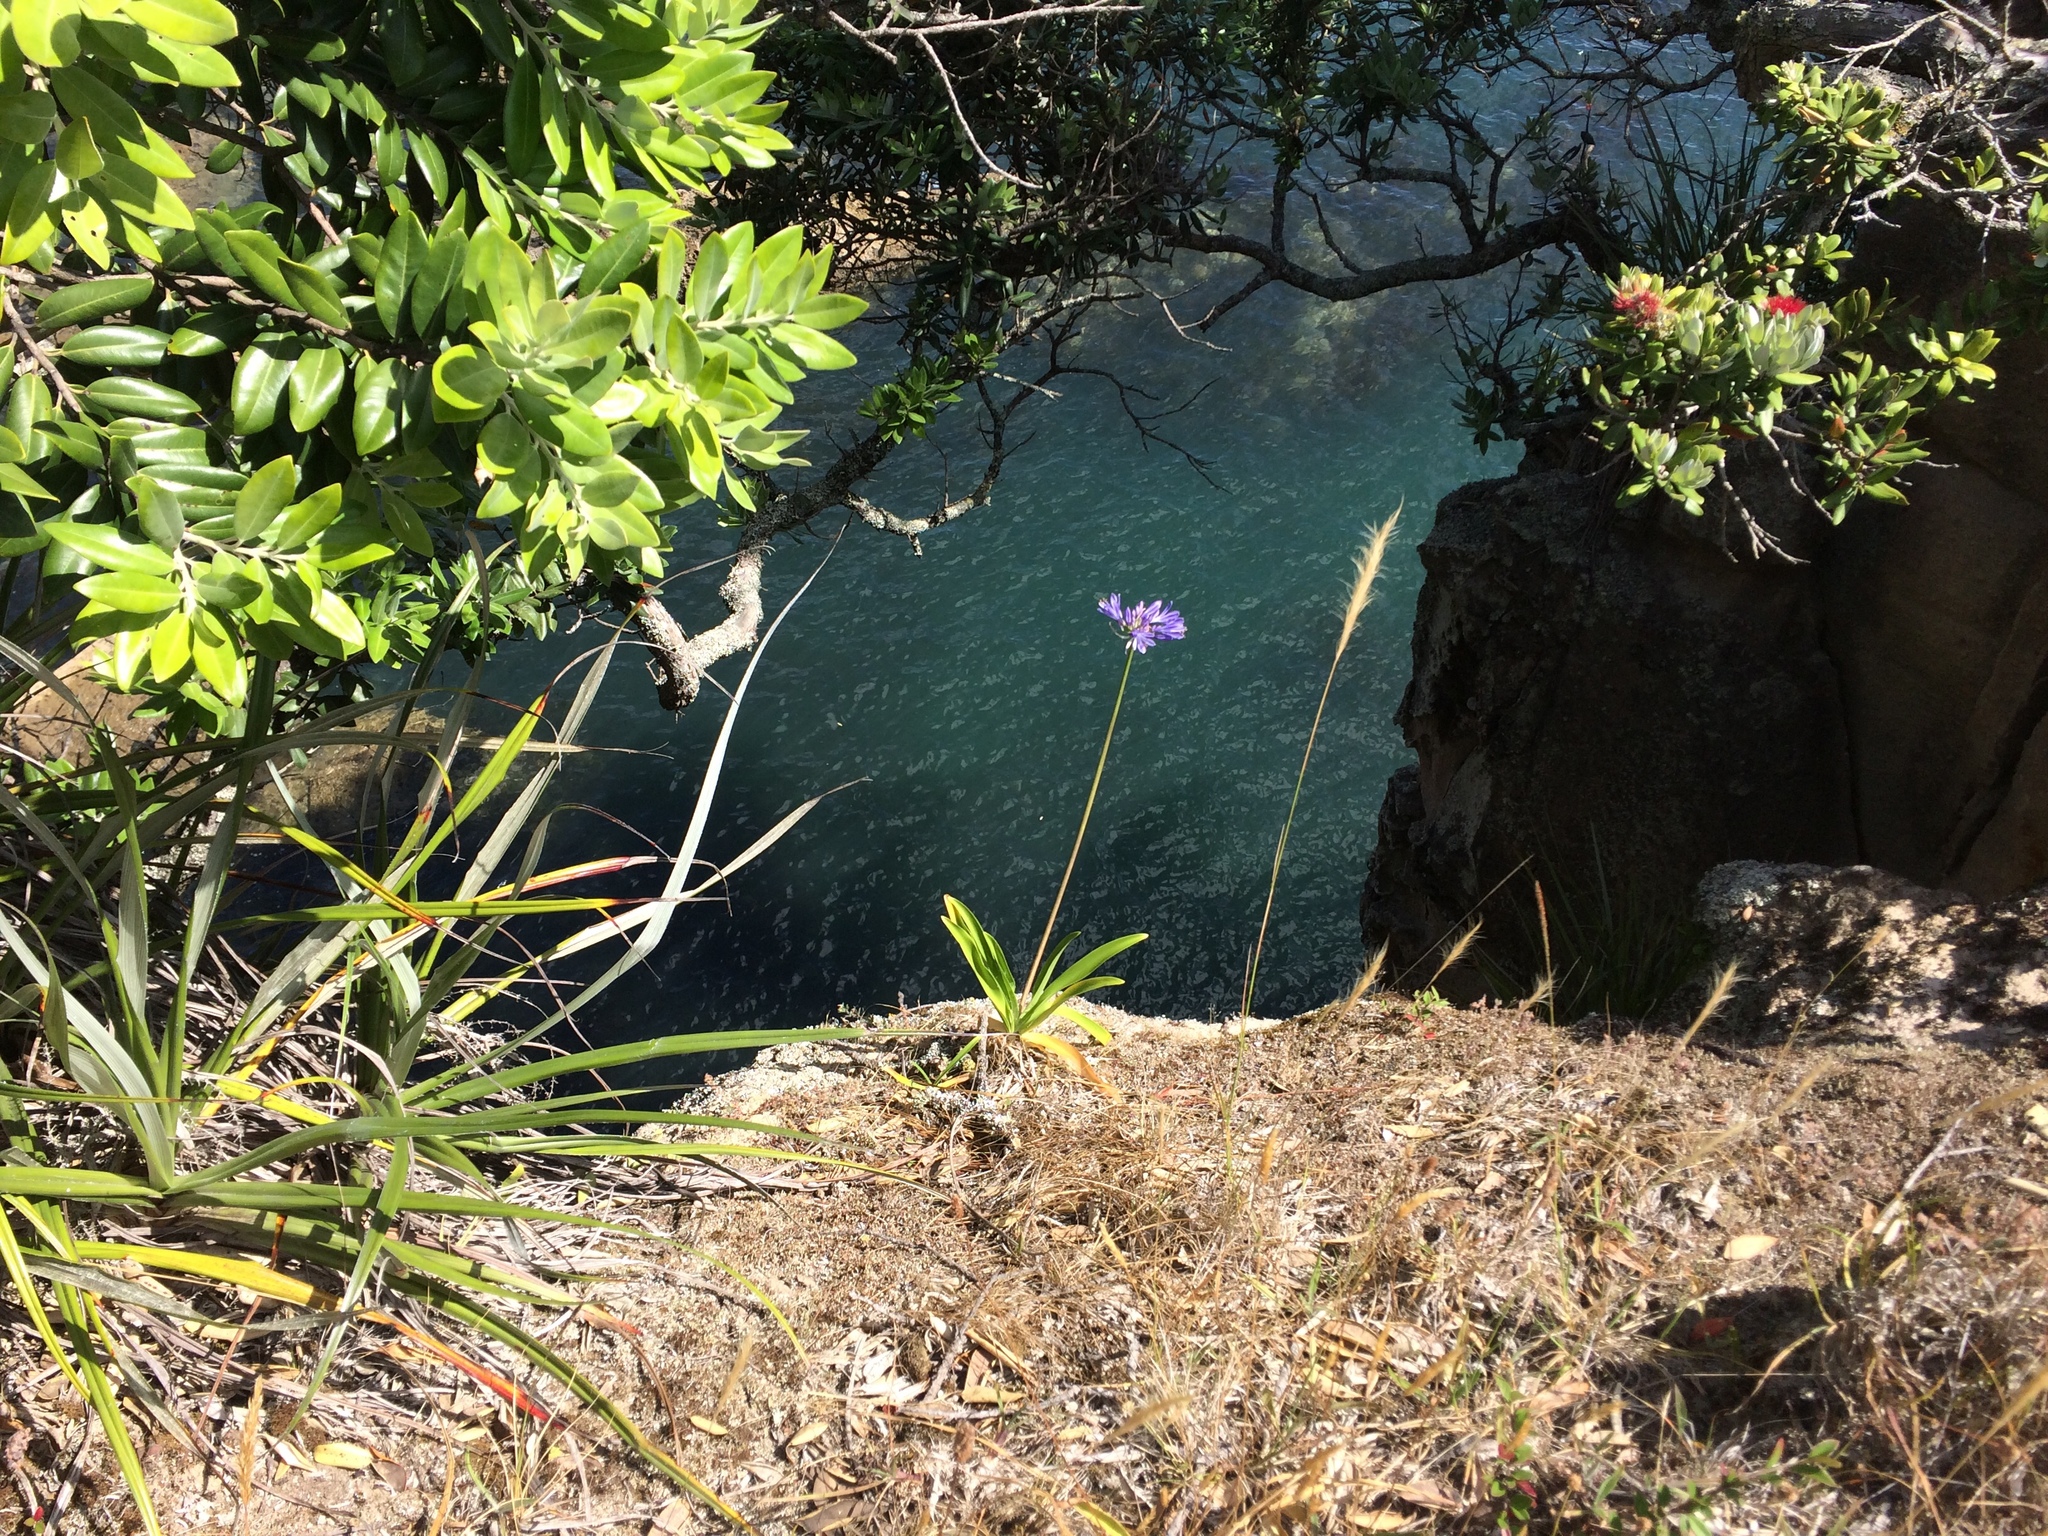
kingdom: Plantae
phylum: Tracheophyta
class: Liliopsida
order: Poales
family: Poaceae
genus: Dichelachne
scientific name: Dichelachne crinita
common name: Clovenfoot plumegrass
